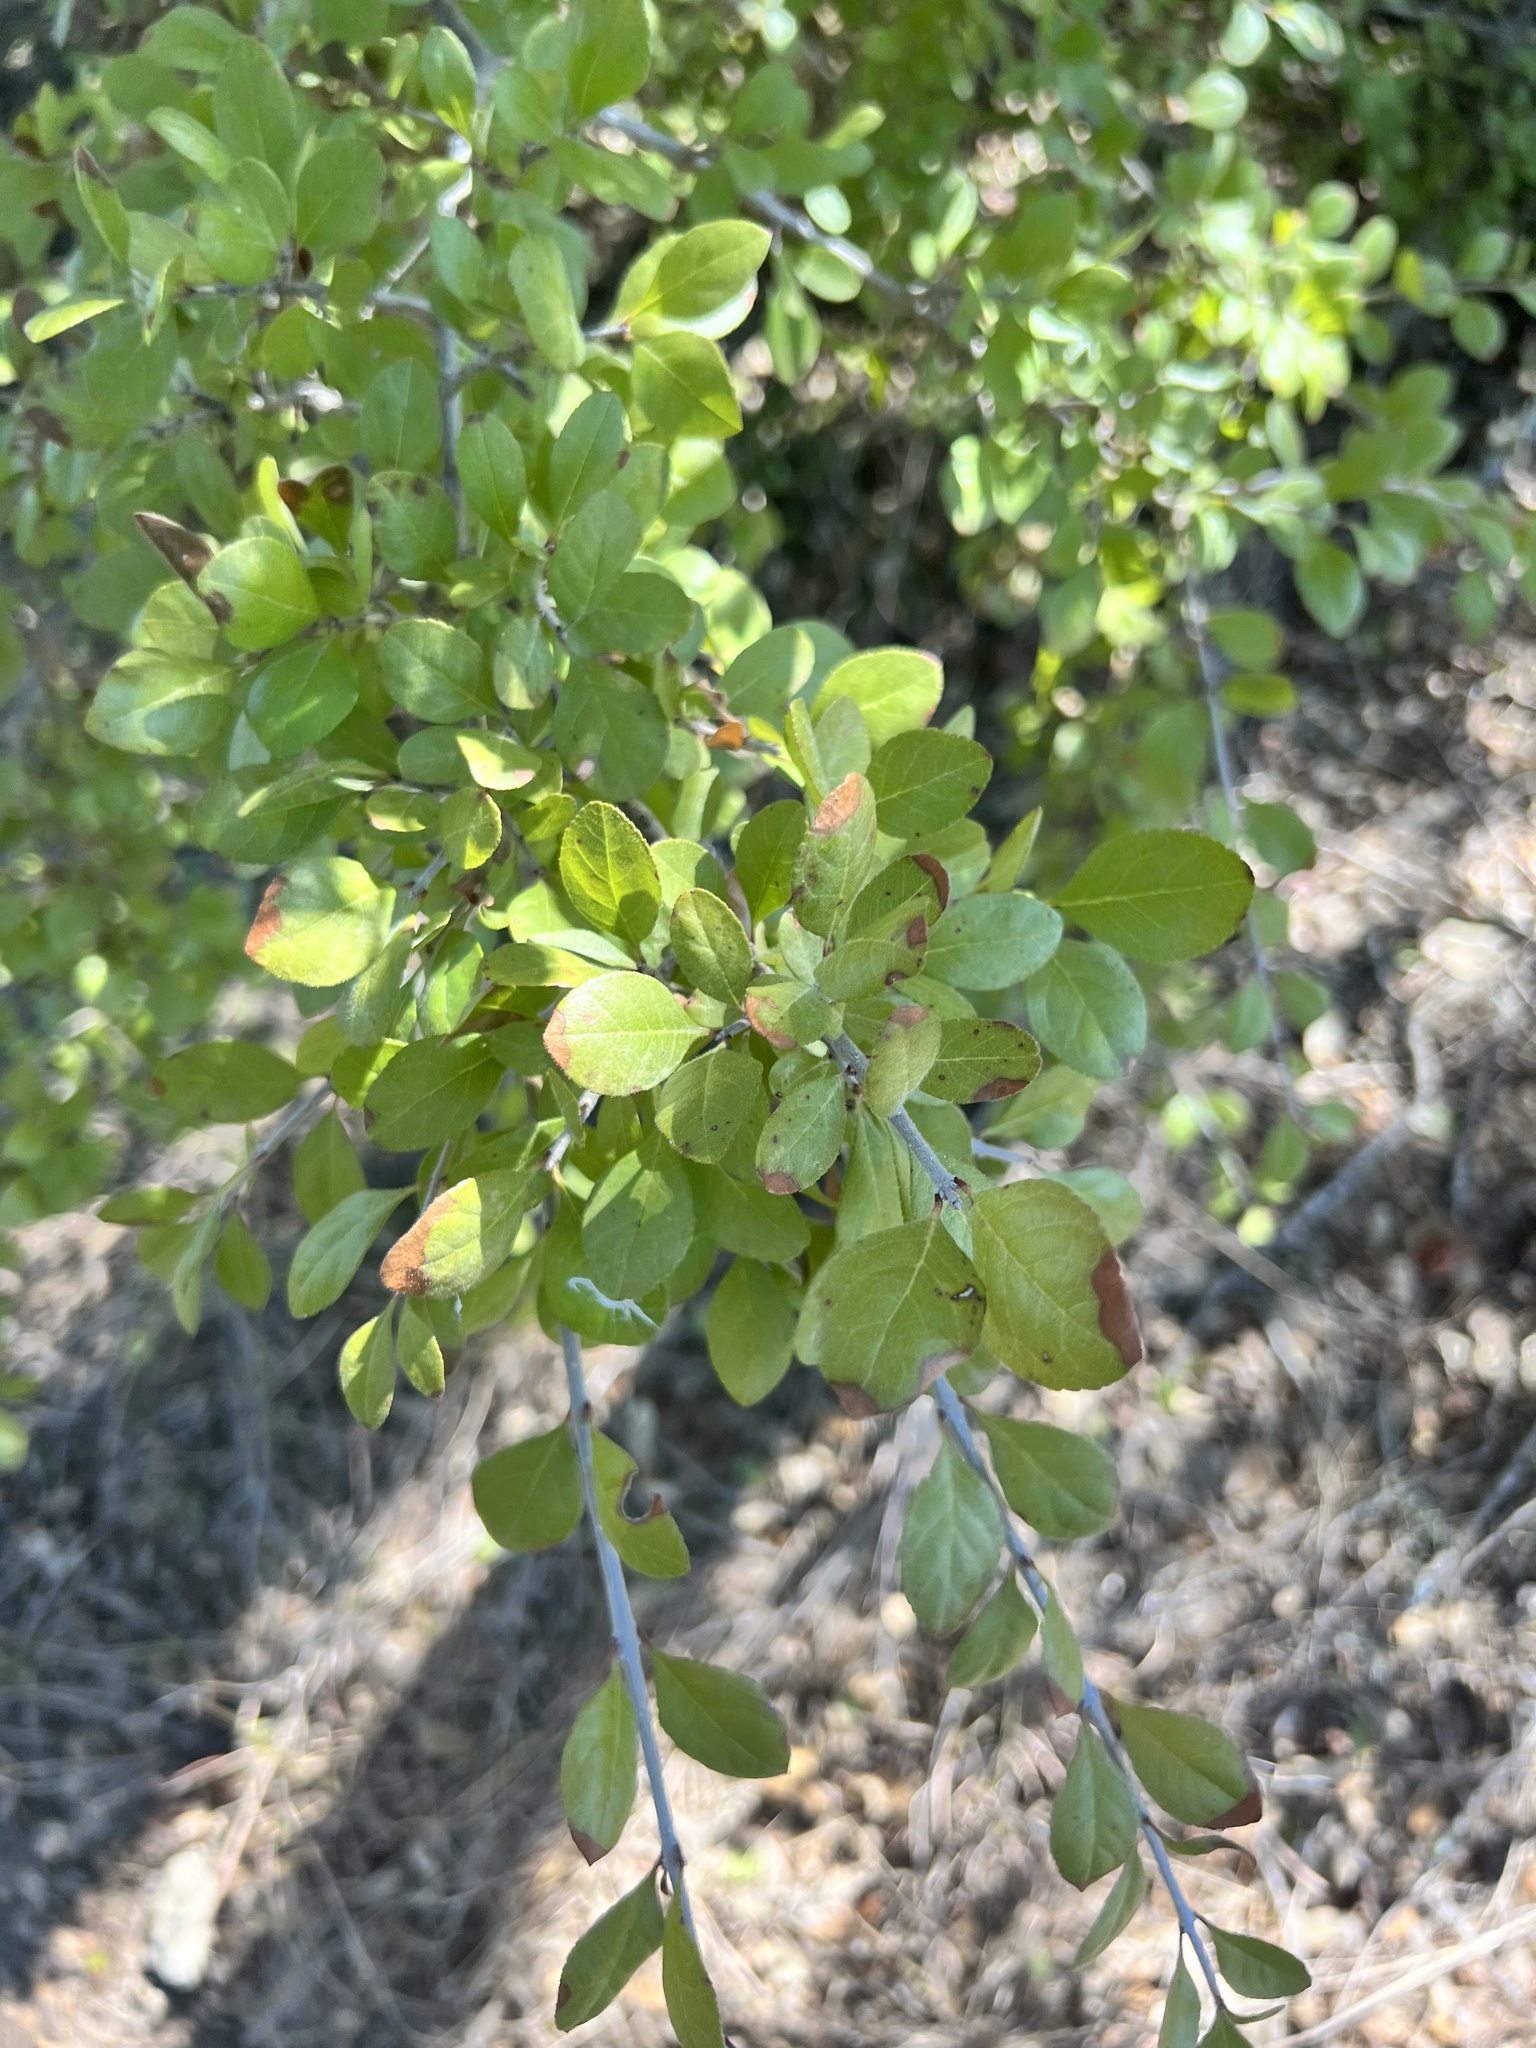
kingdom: Plantae
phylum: Tracheophyta
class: Magnoliopsida
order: Lamiales
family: Oleaceae
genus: Forestiera
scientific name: Forestiera pubescens
